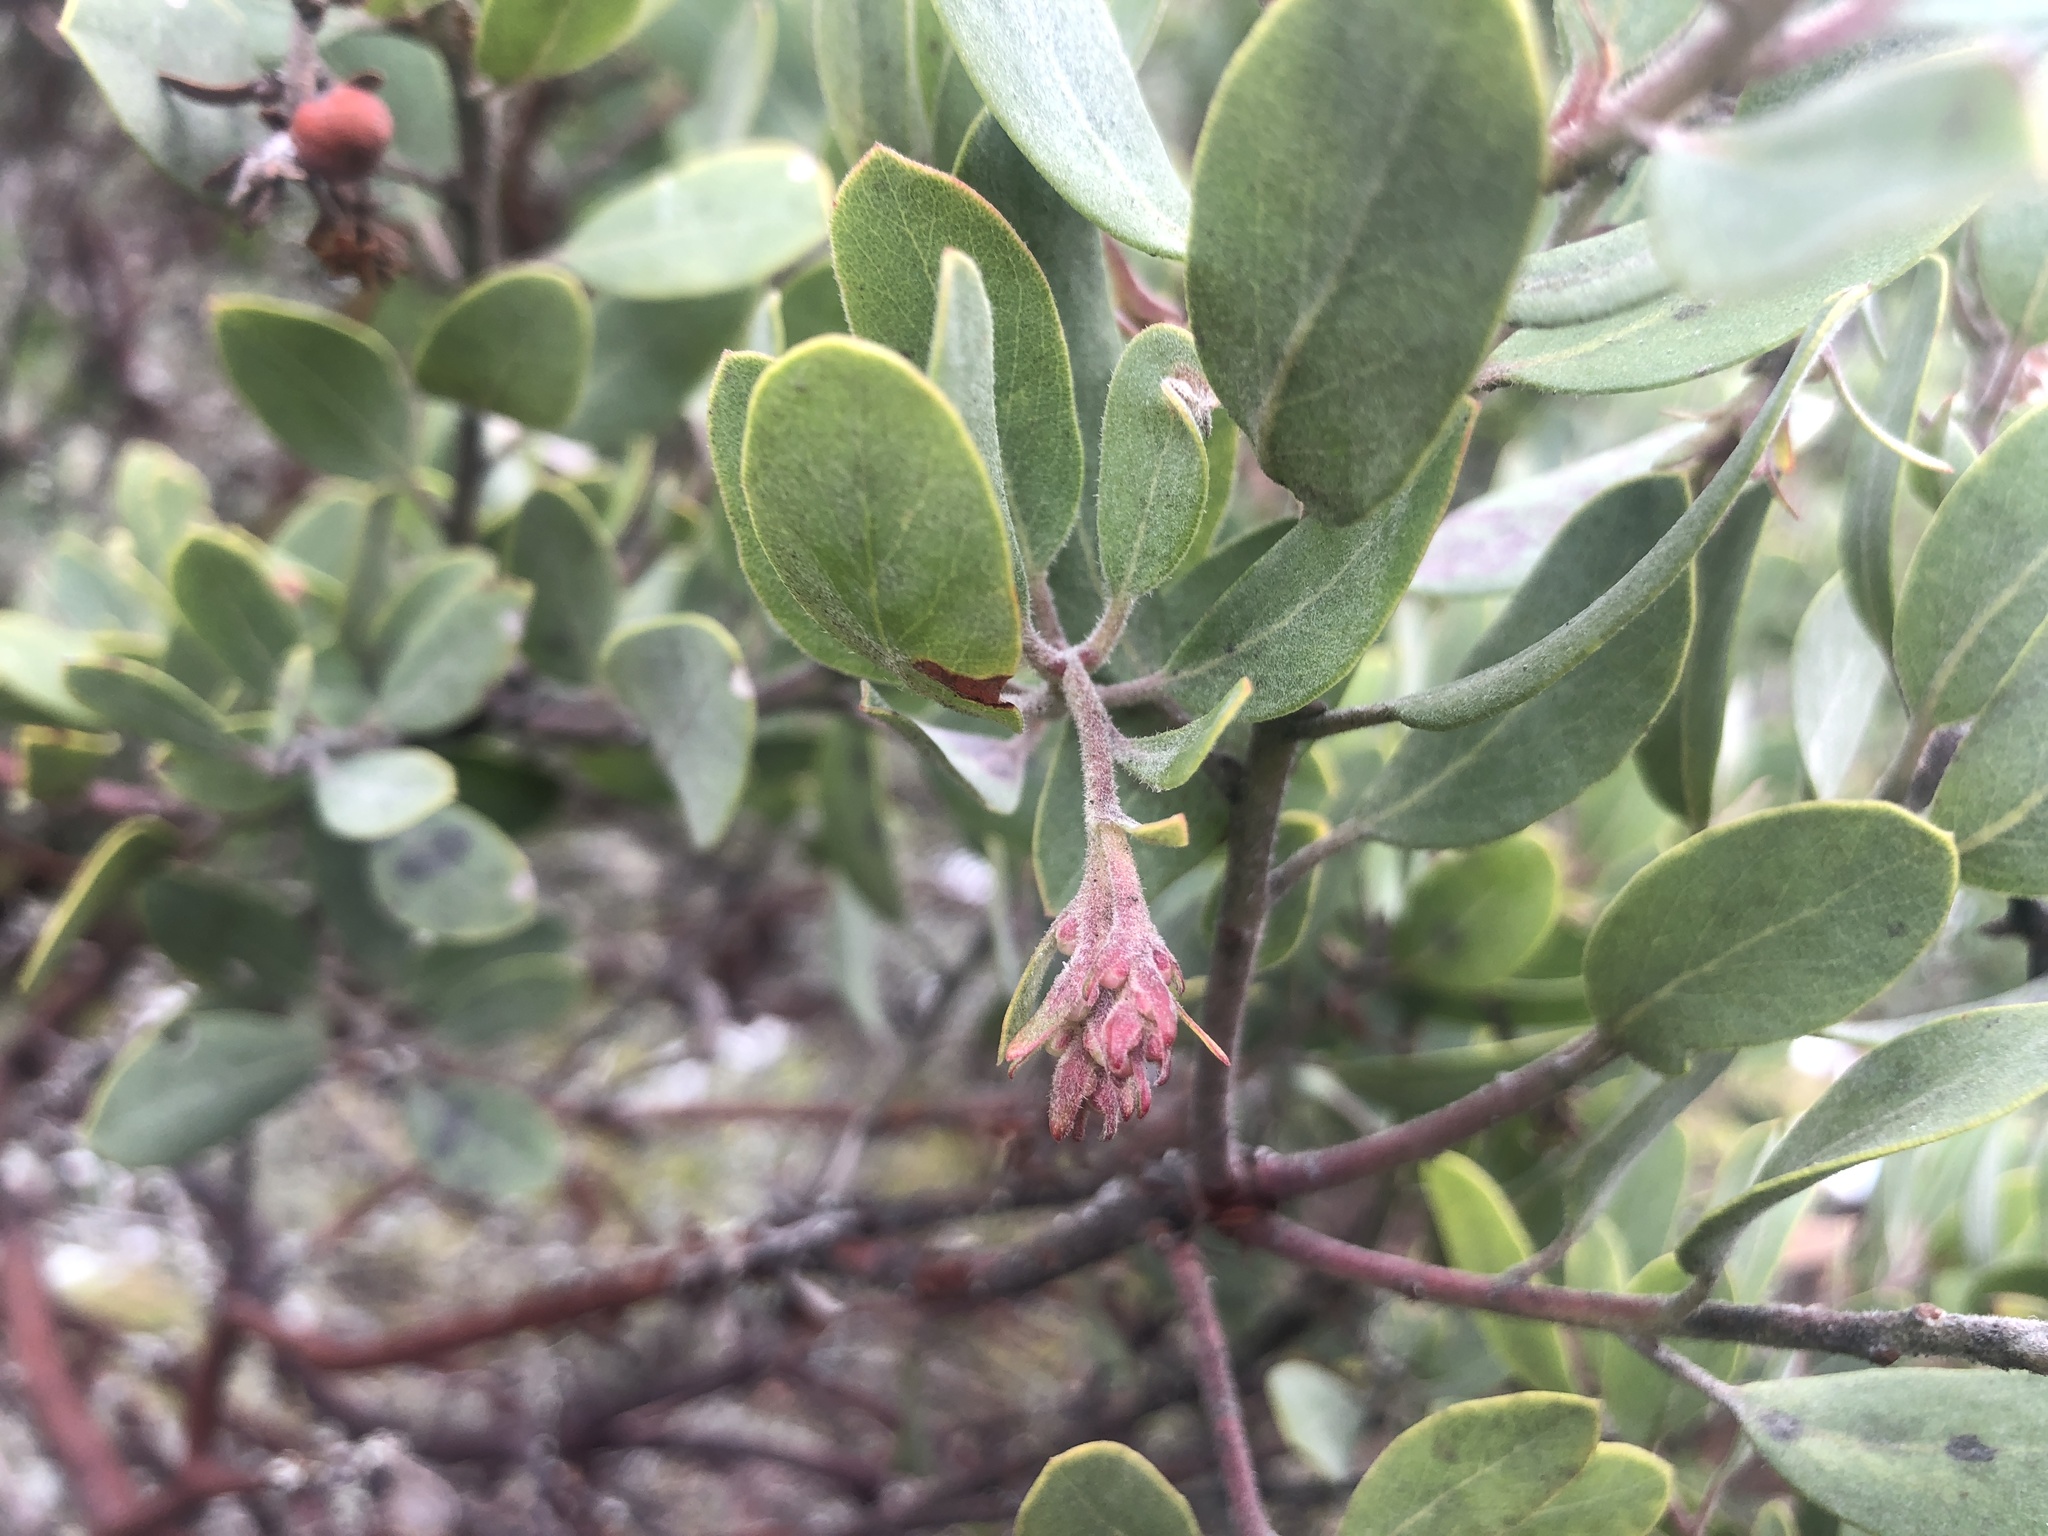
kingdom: Plantae
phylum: Tracheophyta
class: Magnoliopsida
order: Ericales
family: Ericaceae
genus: Arctostaphylos
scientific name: Arctostaphylos columbiana
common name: Bristly bearberry
